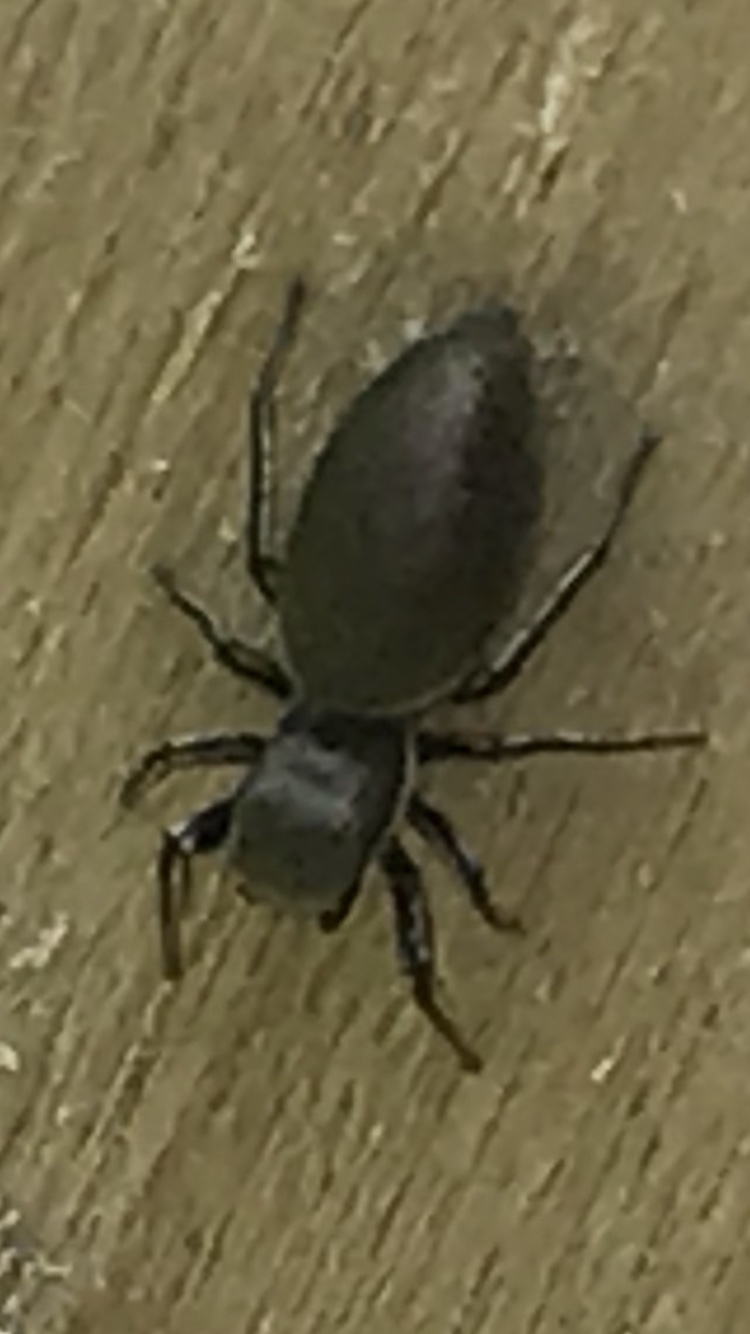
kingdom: Animalia
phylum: Arthropoda
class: Arachnida
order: Araneae
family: Salticidae
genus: Tutelina
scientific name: Tutelina elegans
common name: Thin-spined jumping spider
